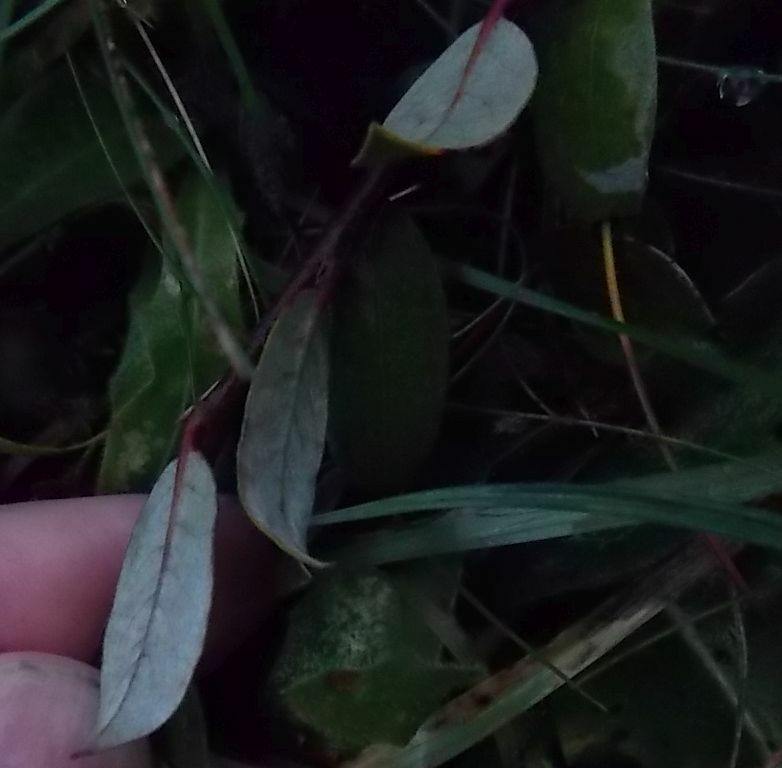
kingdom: Plantae
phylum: Tracheophyta
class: Magnoliopsida
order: Malpighiales
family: Salicaceae
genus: Salix
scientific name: Salix repens
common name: Creeping willow
